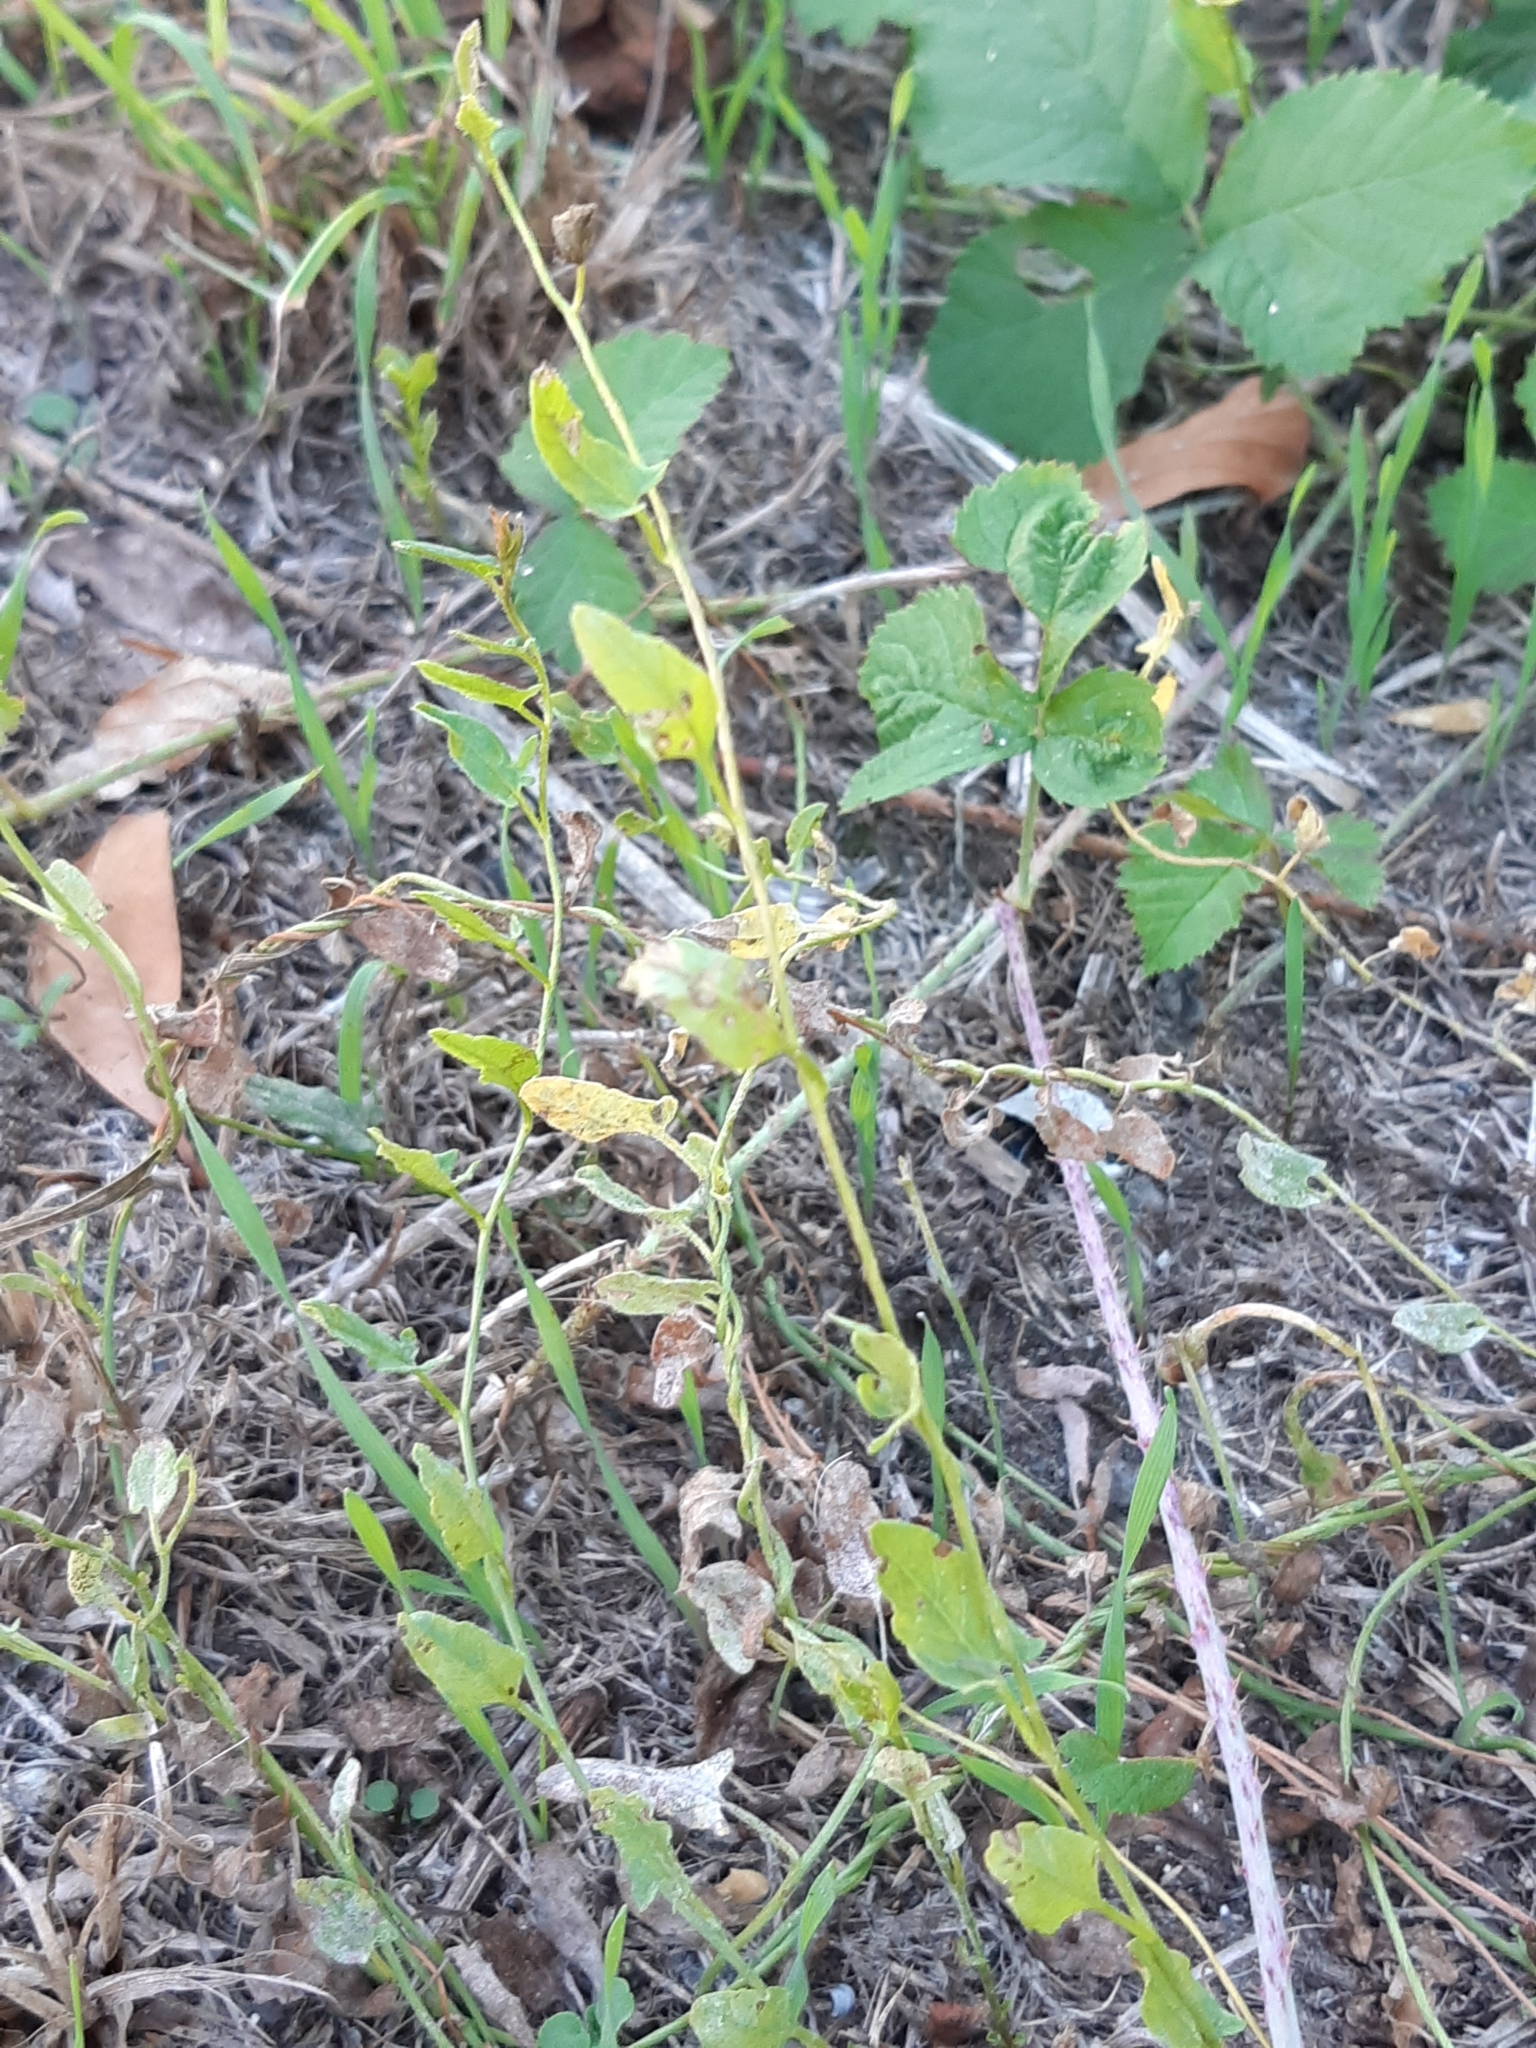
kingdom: Plantae
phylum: Tracheophyta
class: Magnoliopsida
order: Solanales
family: Convolvulaceae
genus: Convolvulus
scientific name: Convolvulus arvensis
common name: Field bindweed
